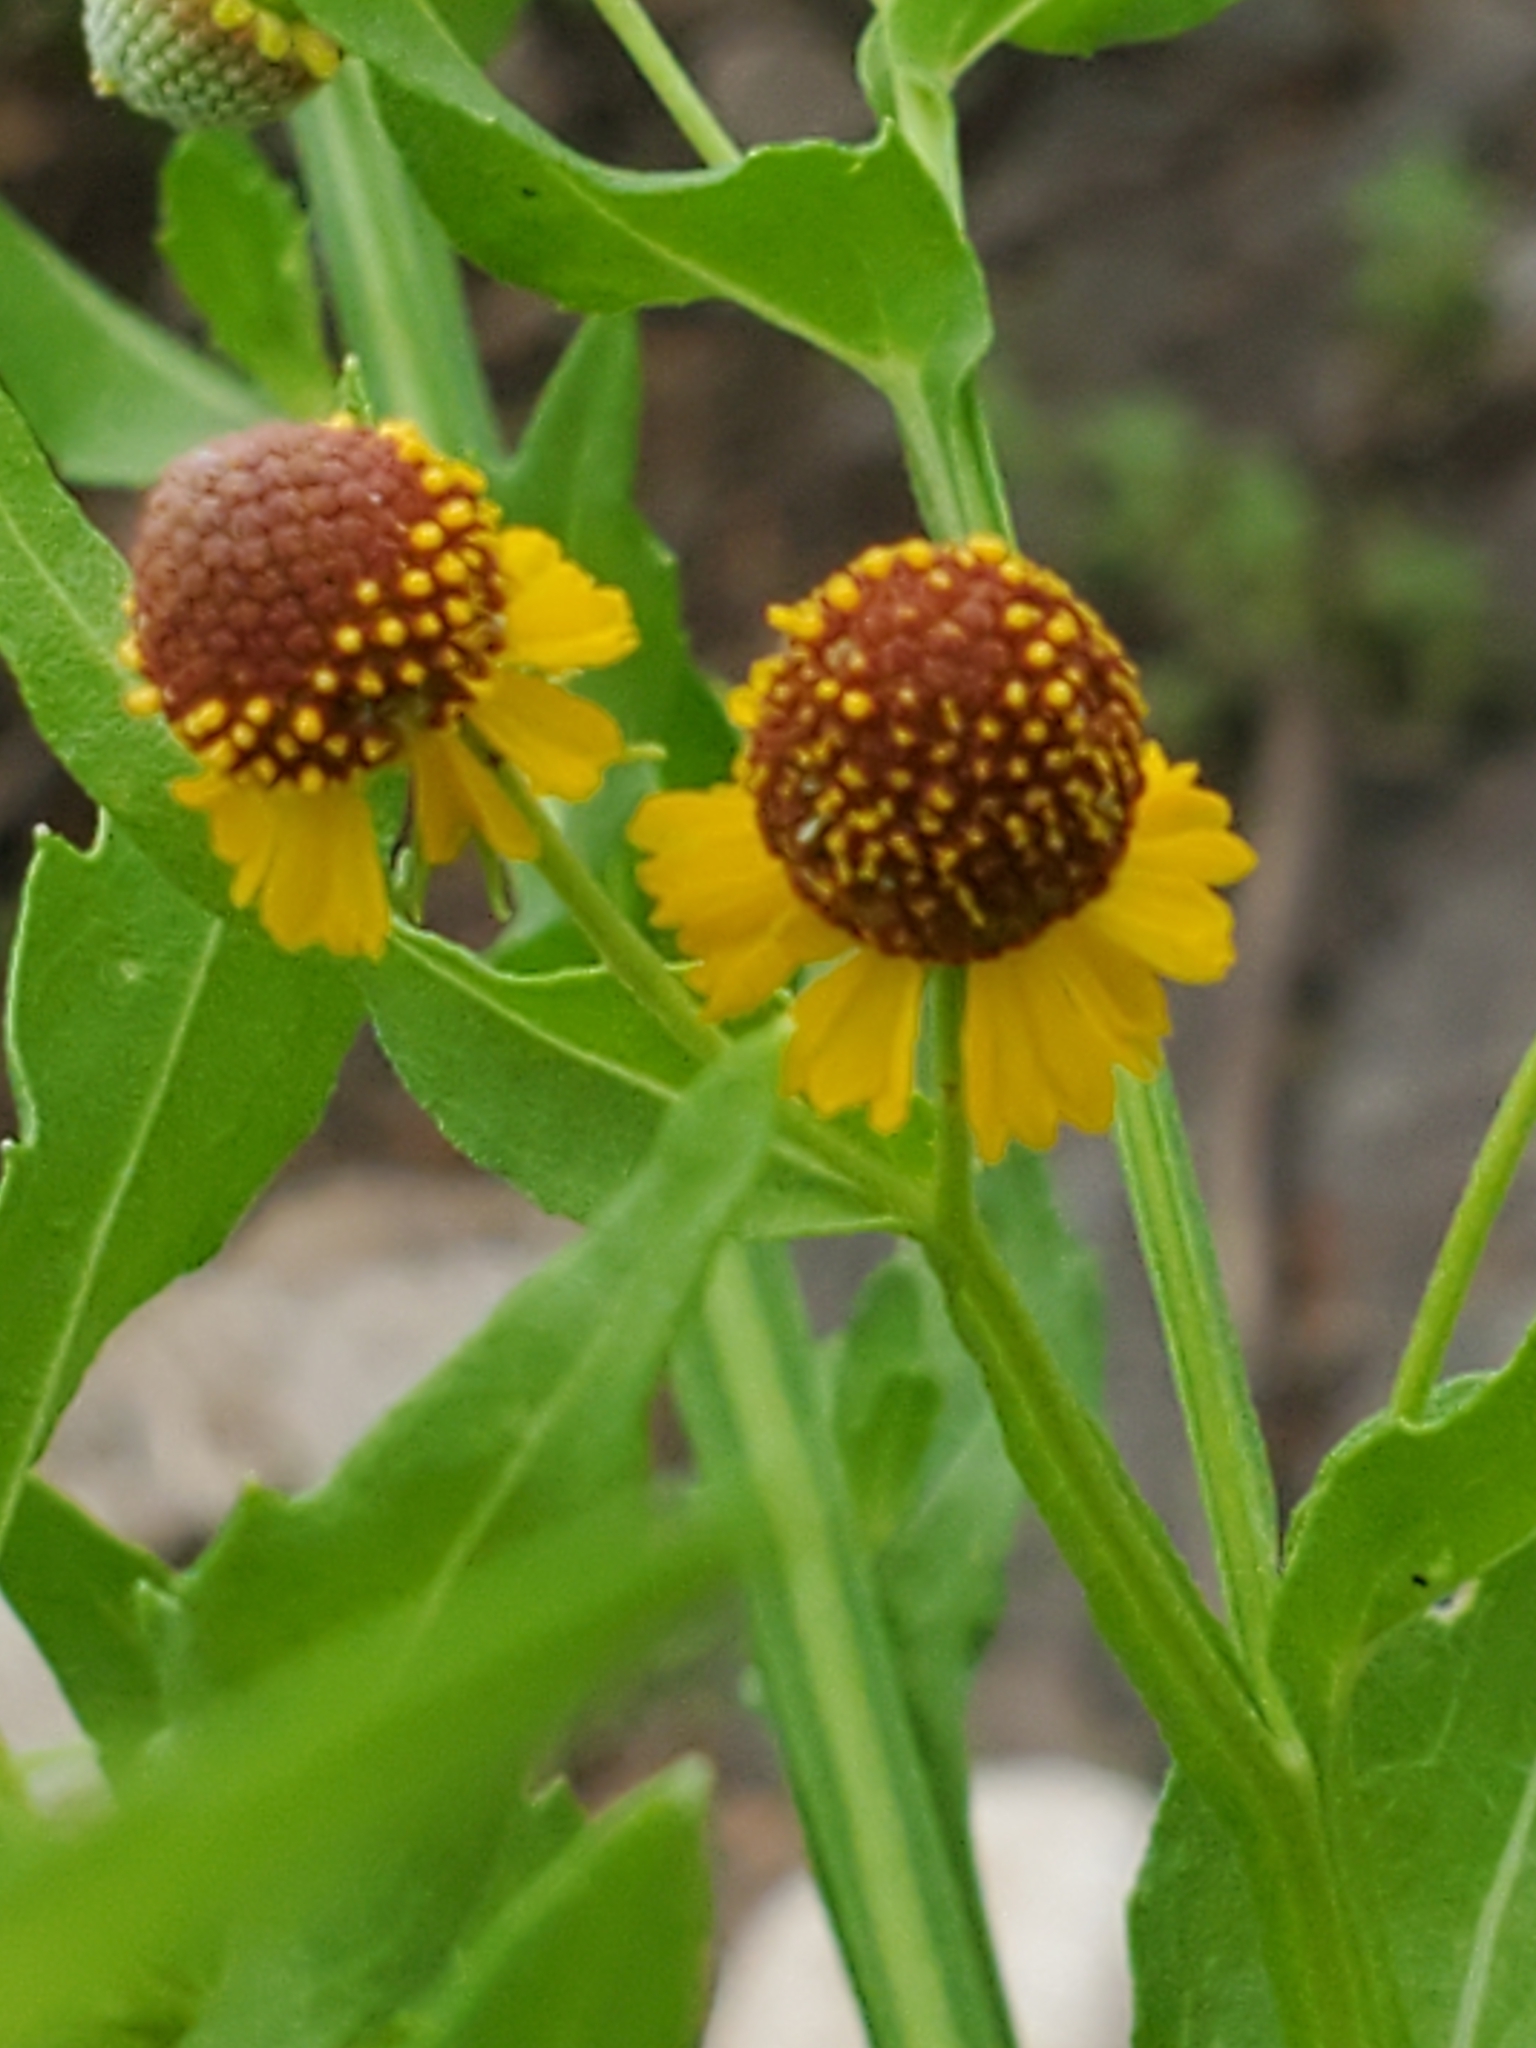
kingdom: Plantae
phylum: Tracheophyta
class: Magnoliopsida
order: Asterales
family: Asteraceae
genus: Helenium
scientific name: Helenium microcephalum
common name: Smallhead sneezeweed
